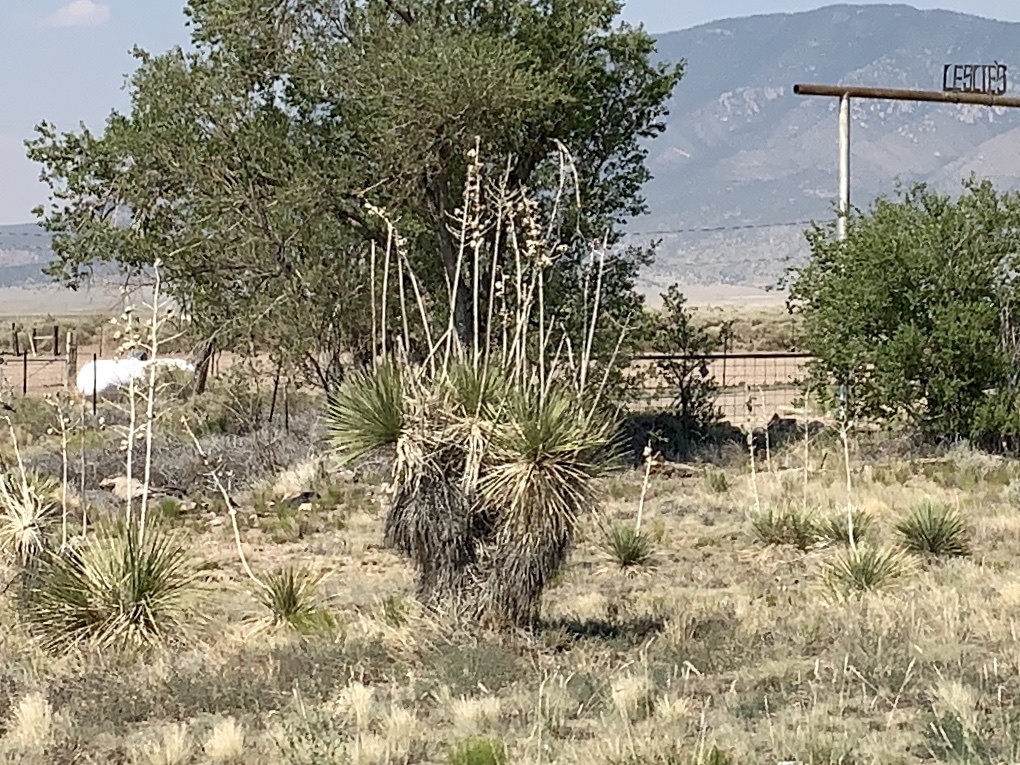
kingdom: Plantae
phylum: Tracheophyta
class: Liliopsida
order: Asparagales
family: Asparagaceae
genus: Yucca
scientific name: Yucca elata
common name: Palmella
